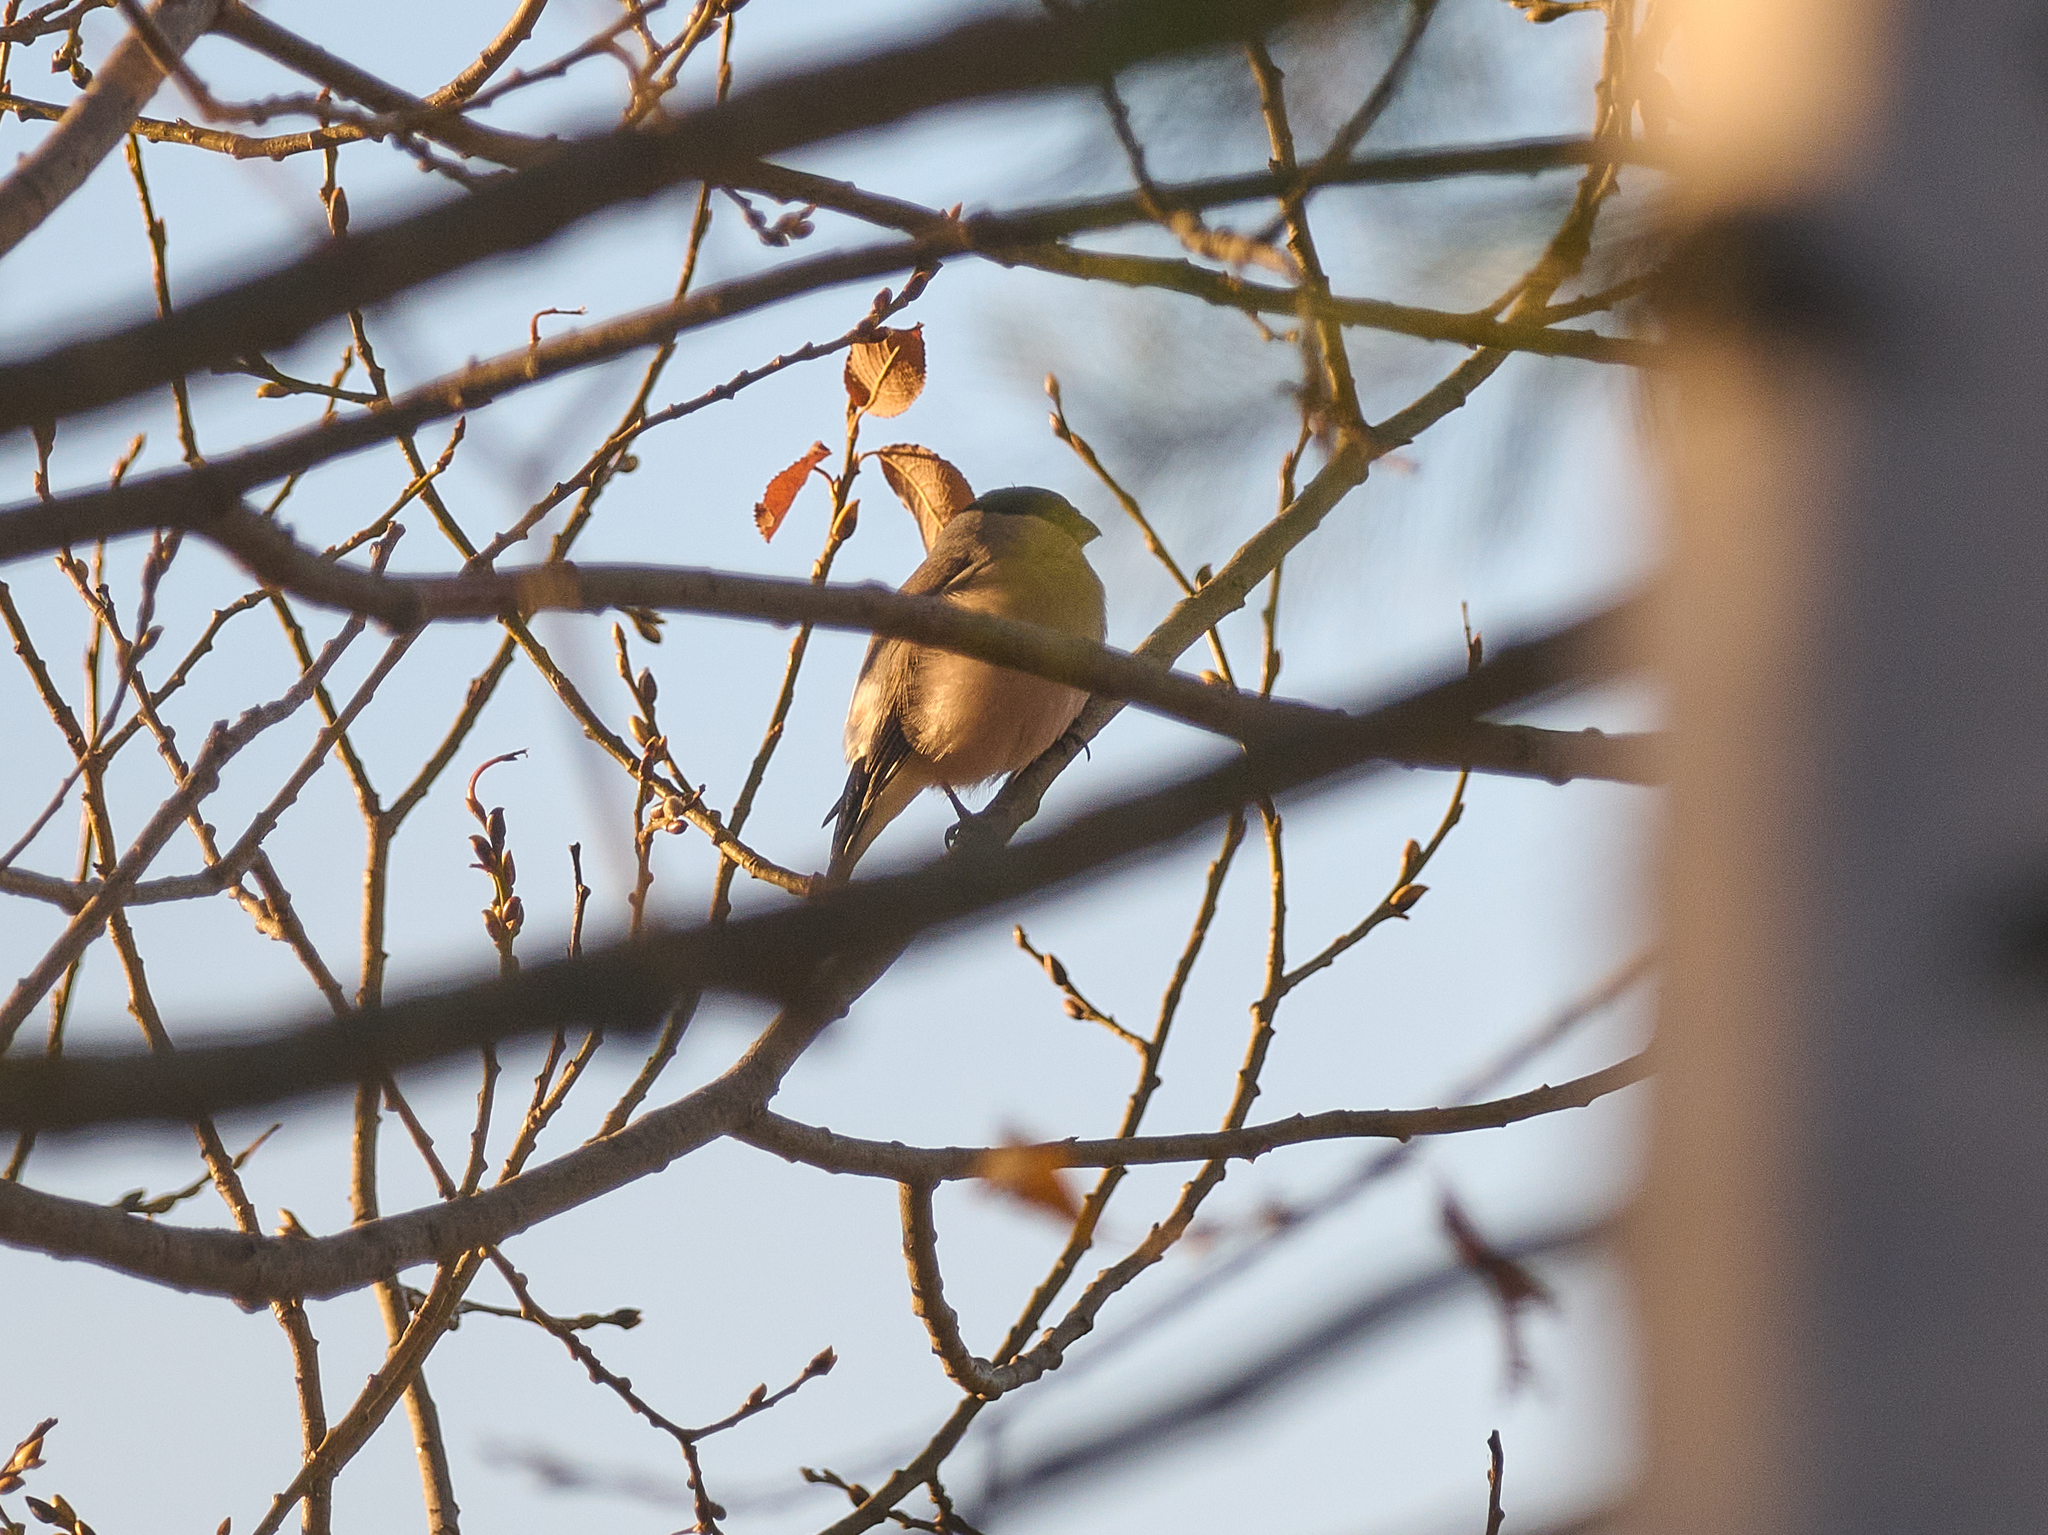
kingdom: Animalia
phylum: Chordata
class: Aves
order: Passeriformes
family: Fringillidae
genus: Pyrrhula
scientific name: Pyrrhula pyrrhula
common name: Eurasian bullfinch
